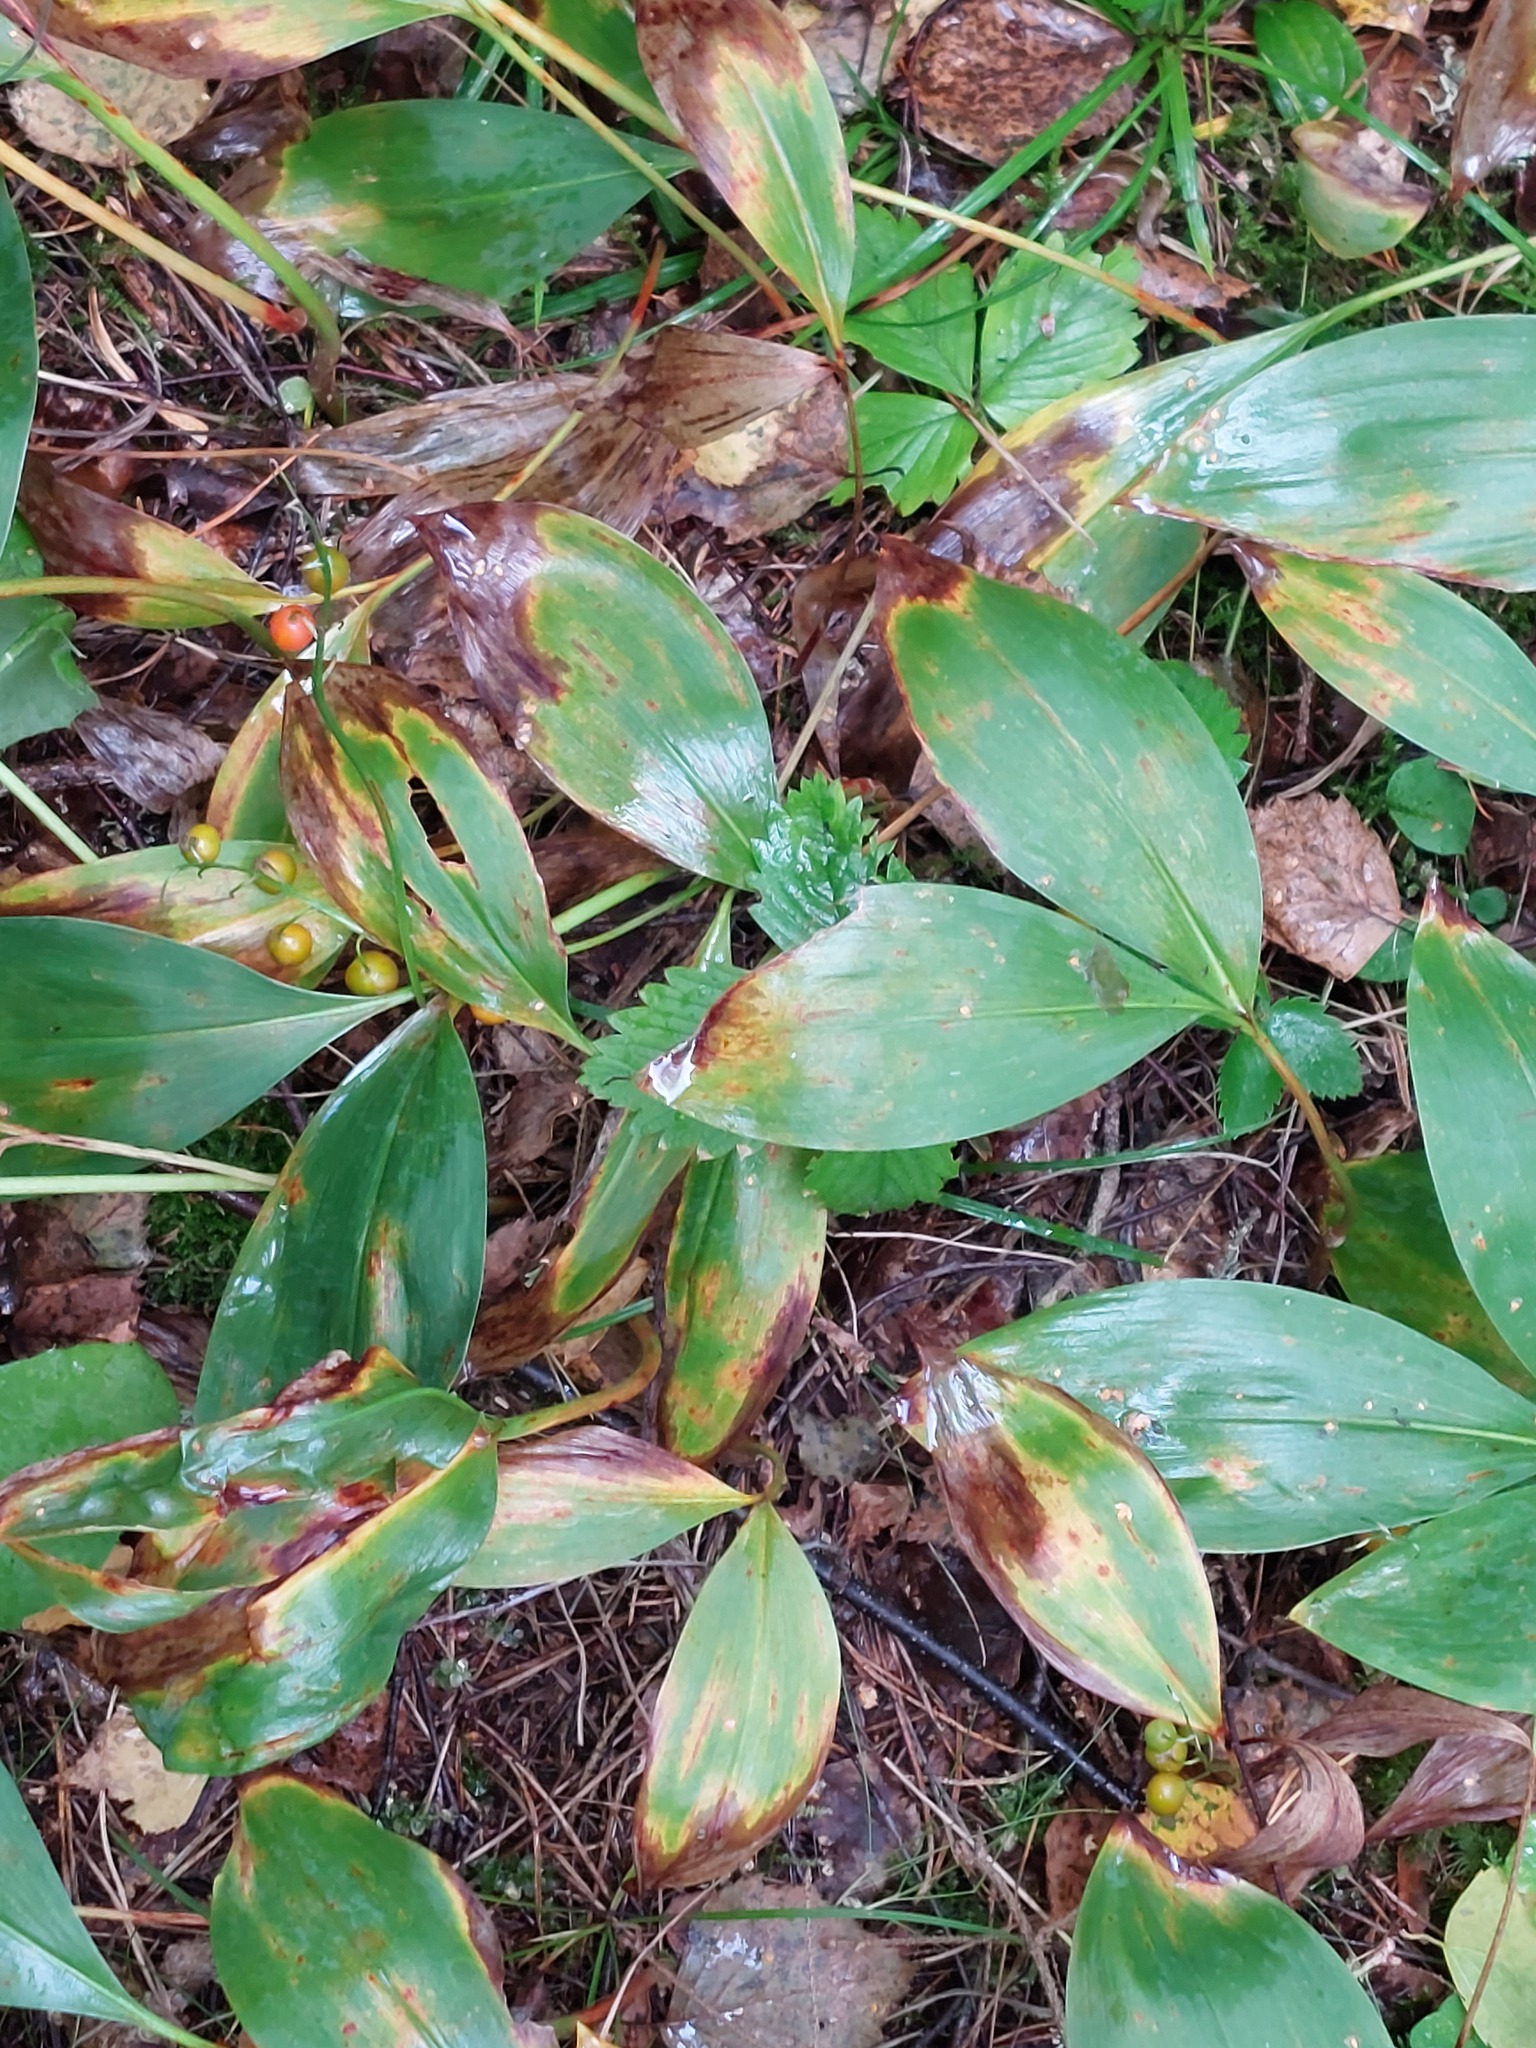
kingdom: Plantae
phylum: Tracheophyta
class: Liliopsida
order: Asparagales
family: Asparagaceae
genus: Convallaria
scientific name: Convallaria majalis
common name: Lily-of-the-valley
